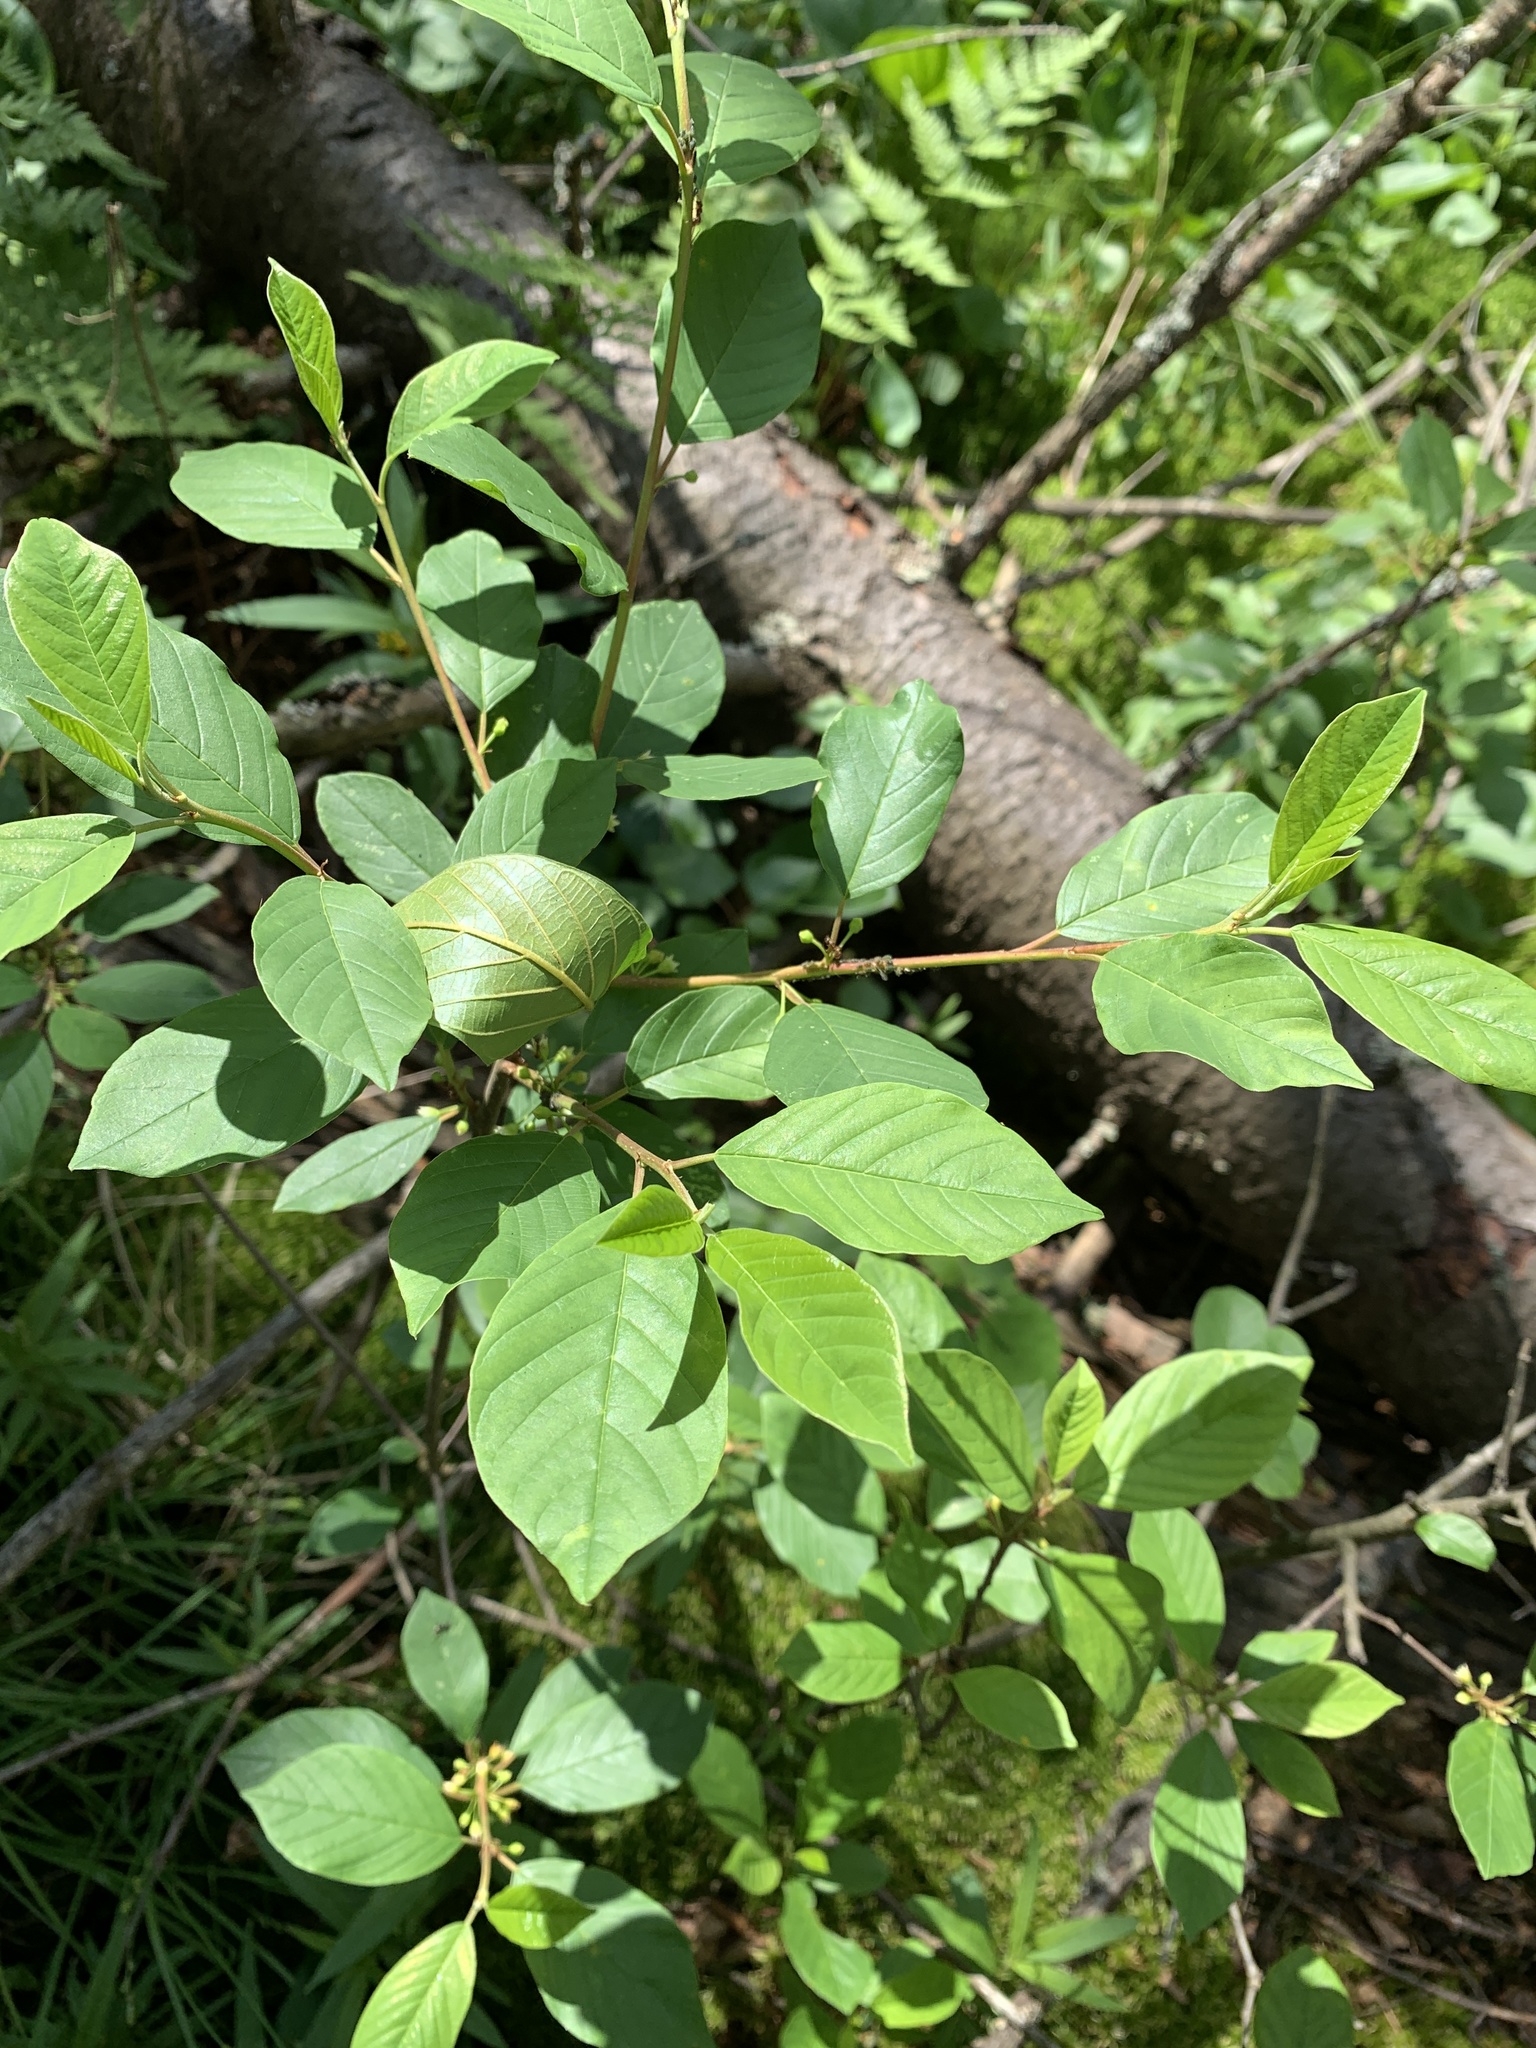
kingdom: Plantae
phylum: Tracheophyta
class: Magnoliopsida
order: Rosales
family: Rhamnaceae
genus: Frangula
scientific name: Frangula alnus
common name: Alder buckthorn
